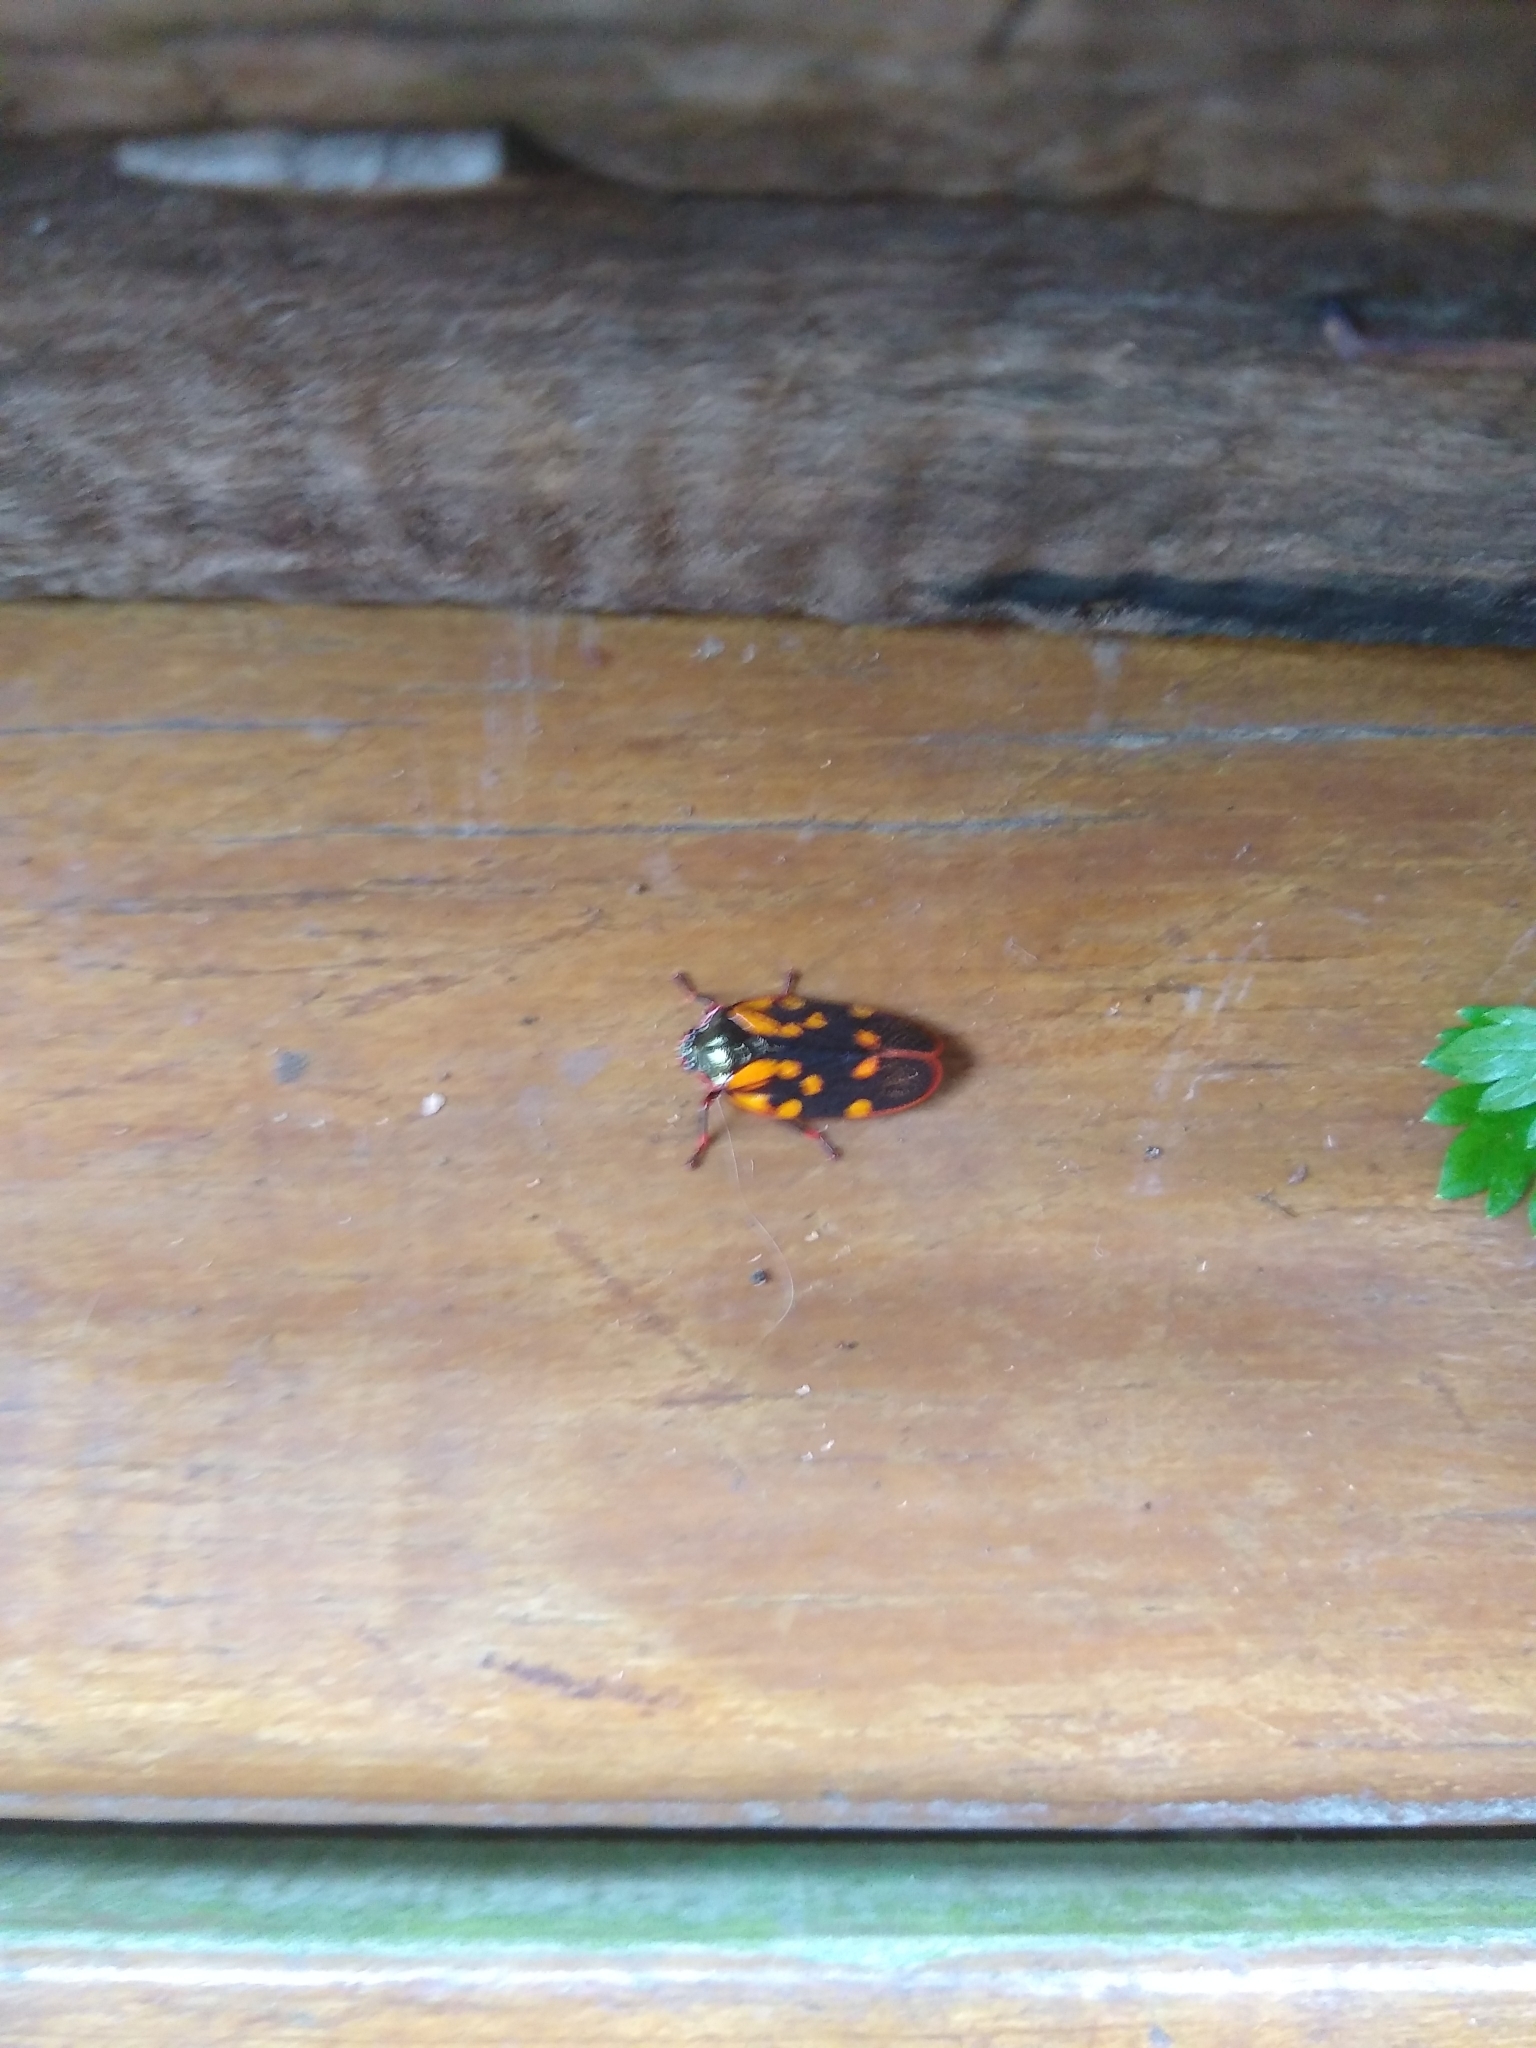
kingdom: Animalia
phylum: Arthropoda
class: Insecta
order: Hemiptera
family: Cercopidae
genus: Mahanarva
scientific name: Mahanarva costaricensis
